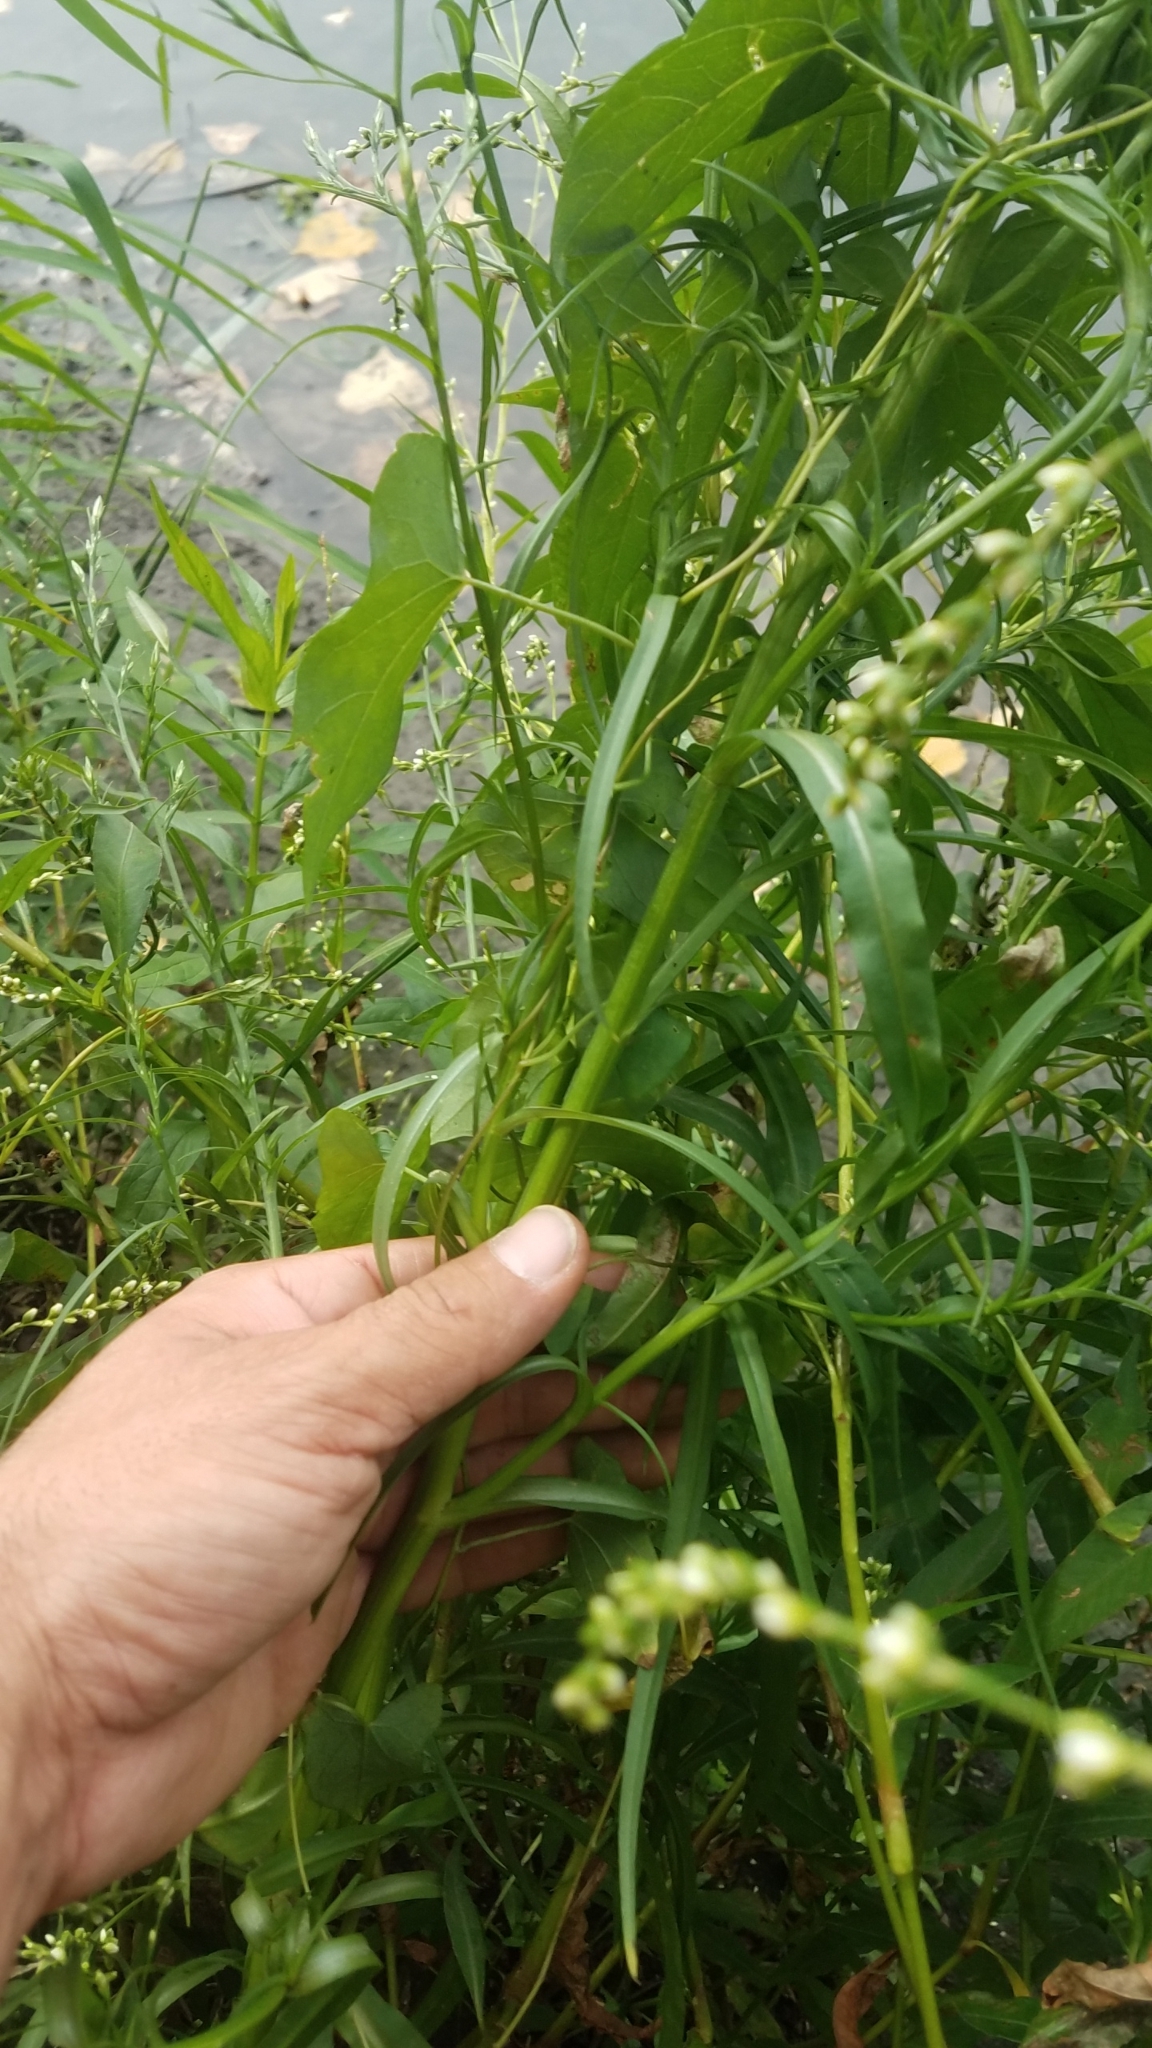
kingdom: Plantae
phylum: Tracheophyta
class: Magnoliopsida
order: Asterales
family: Asteraceae
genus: Symphyotrichum
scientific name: Symphyotrichum subulatum
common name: Annual saltmarsh aster
